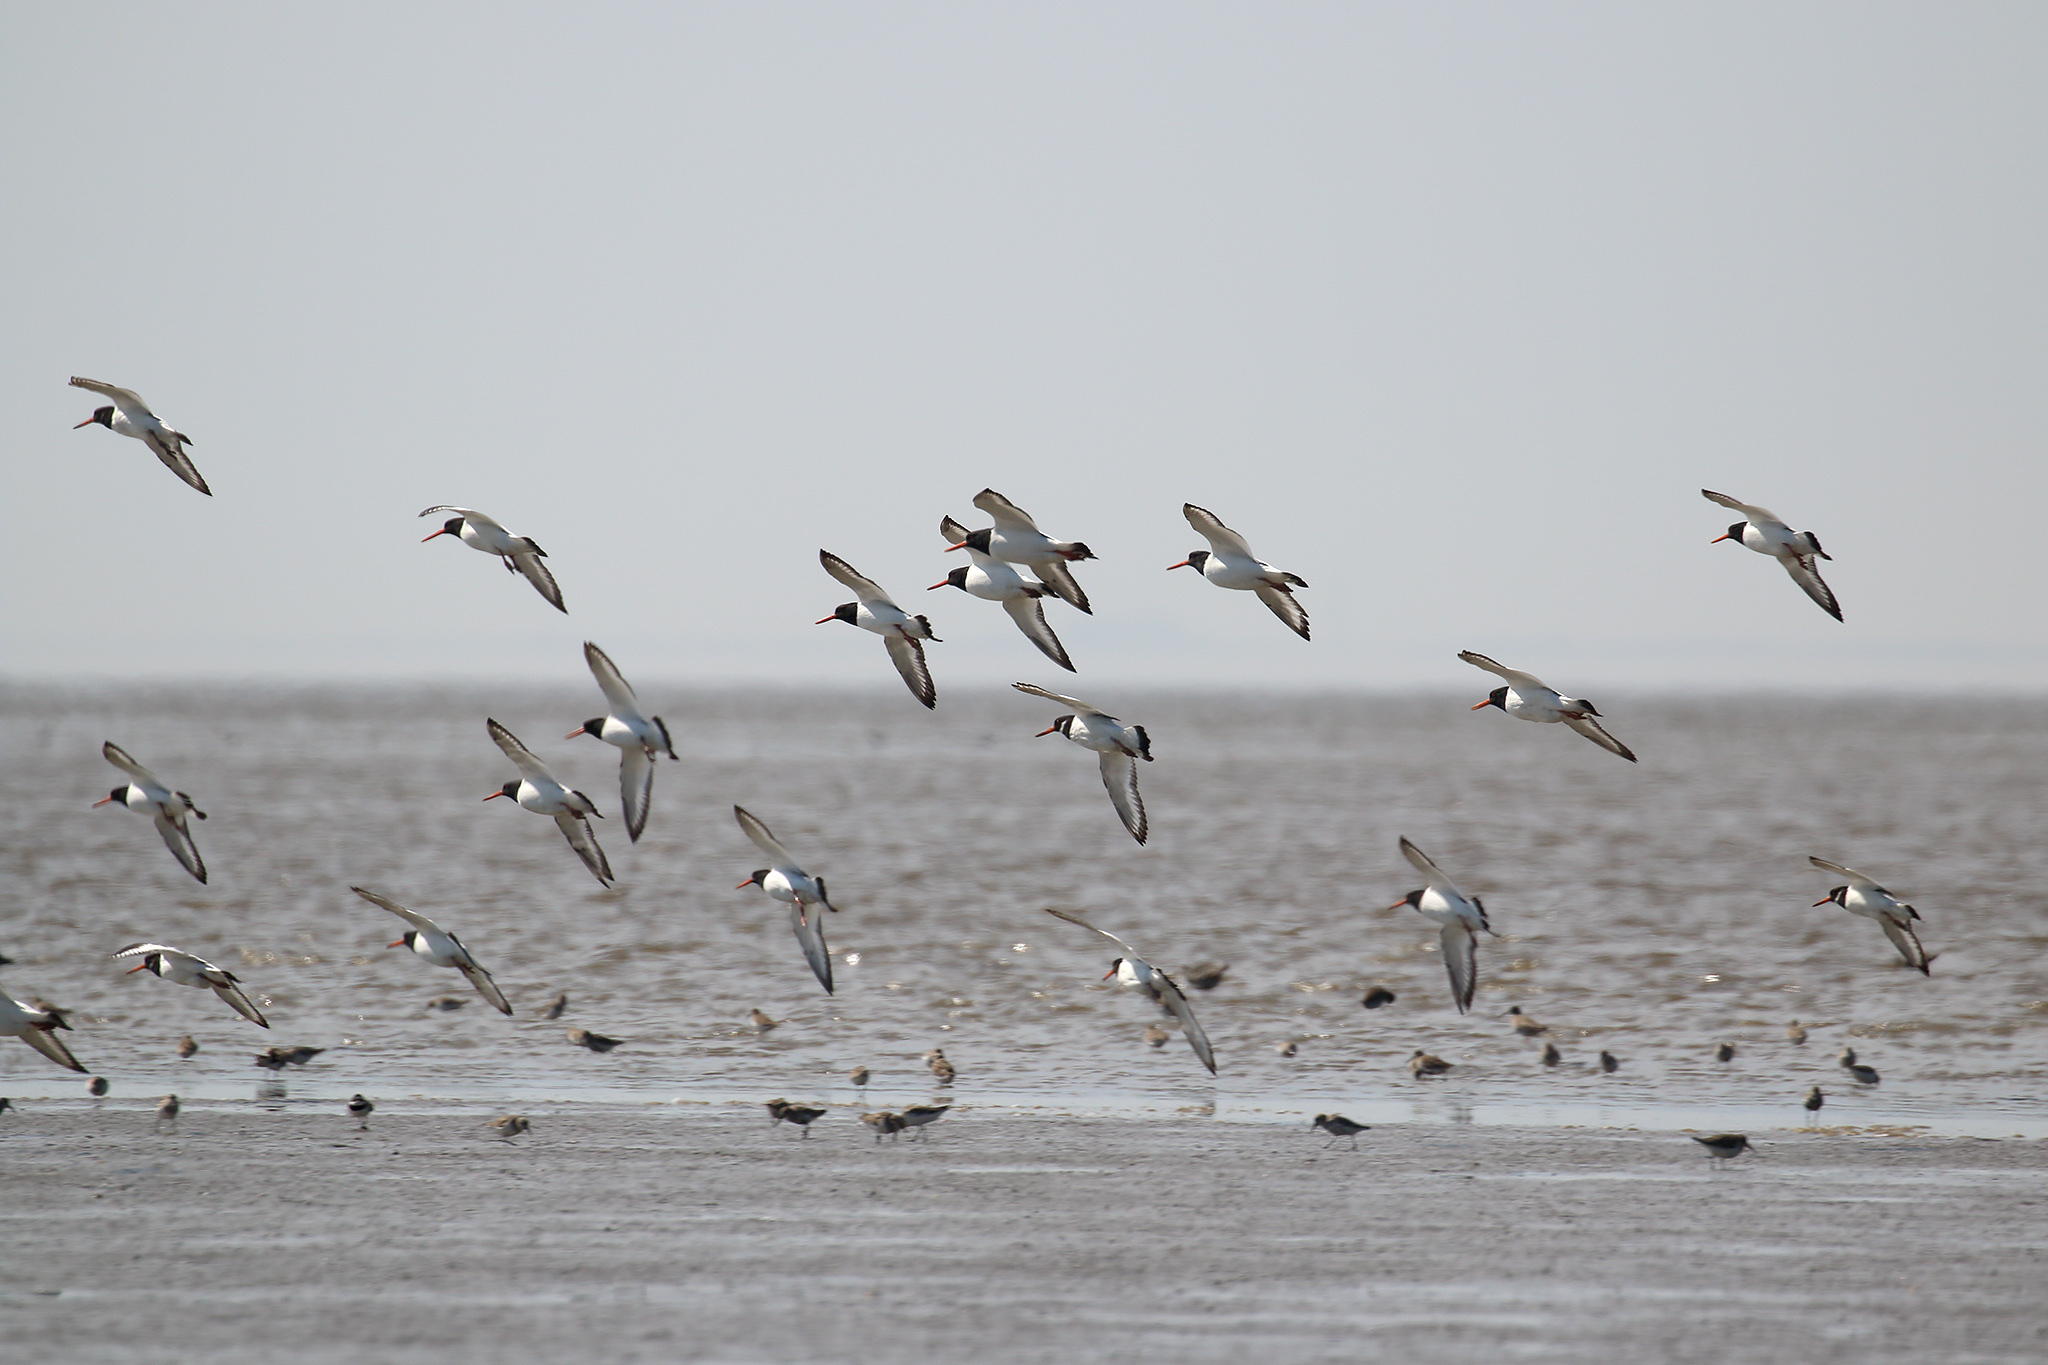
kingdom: Animalia
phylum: Chordata
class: Aves
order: Charadriiformes
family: Haematopodidae
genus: Haematopus
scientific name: Haematopus ostralegus
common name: Eurasian oystercatcher
